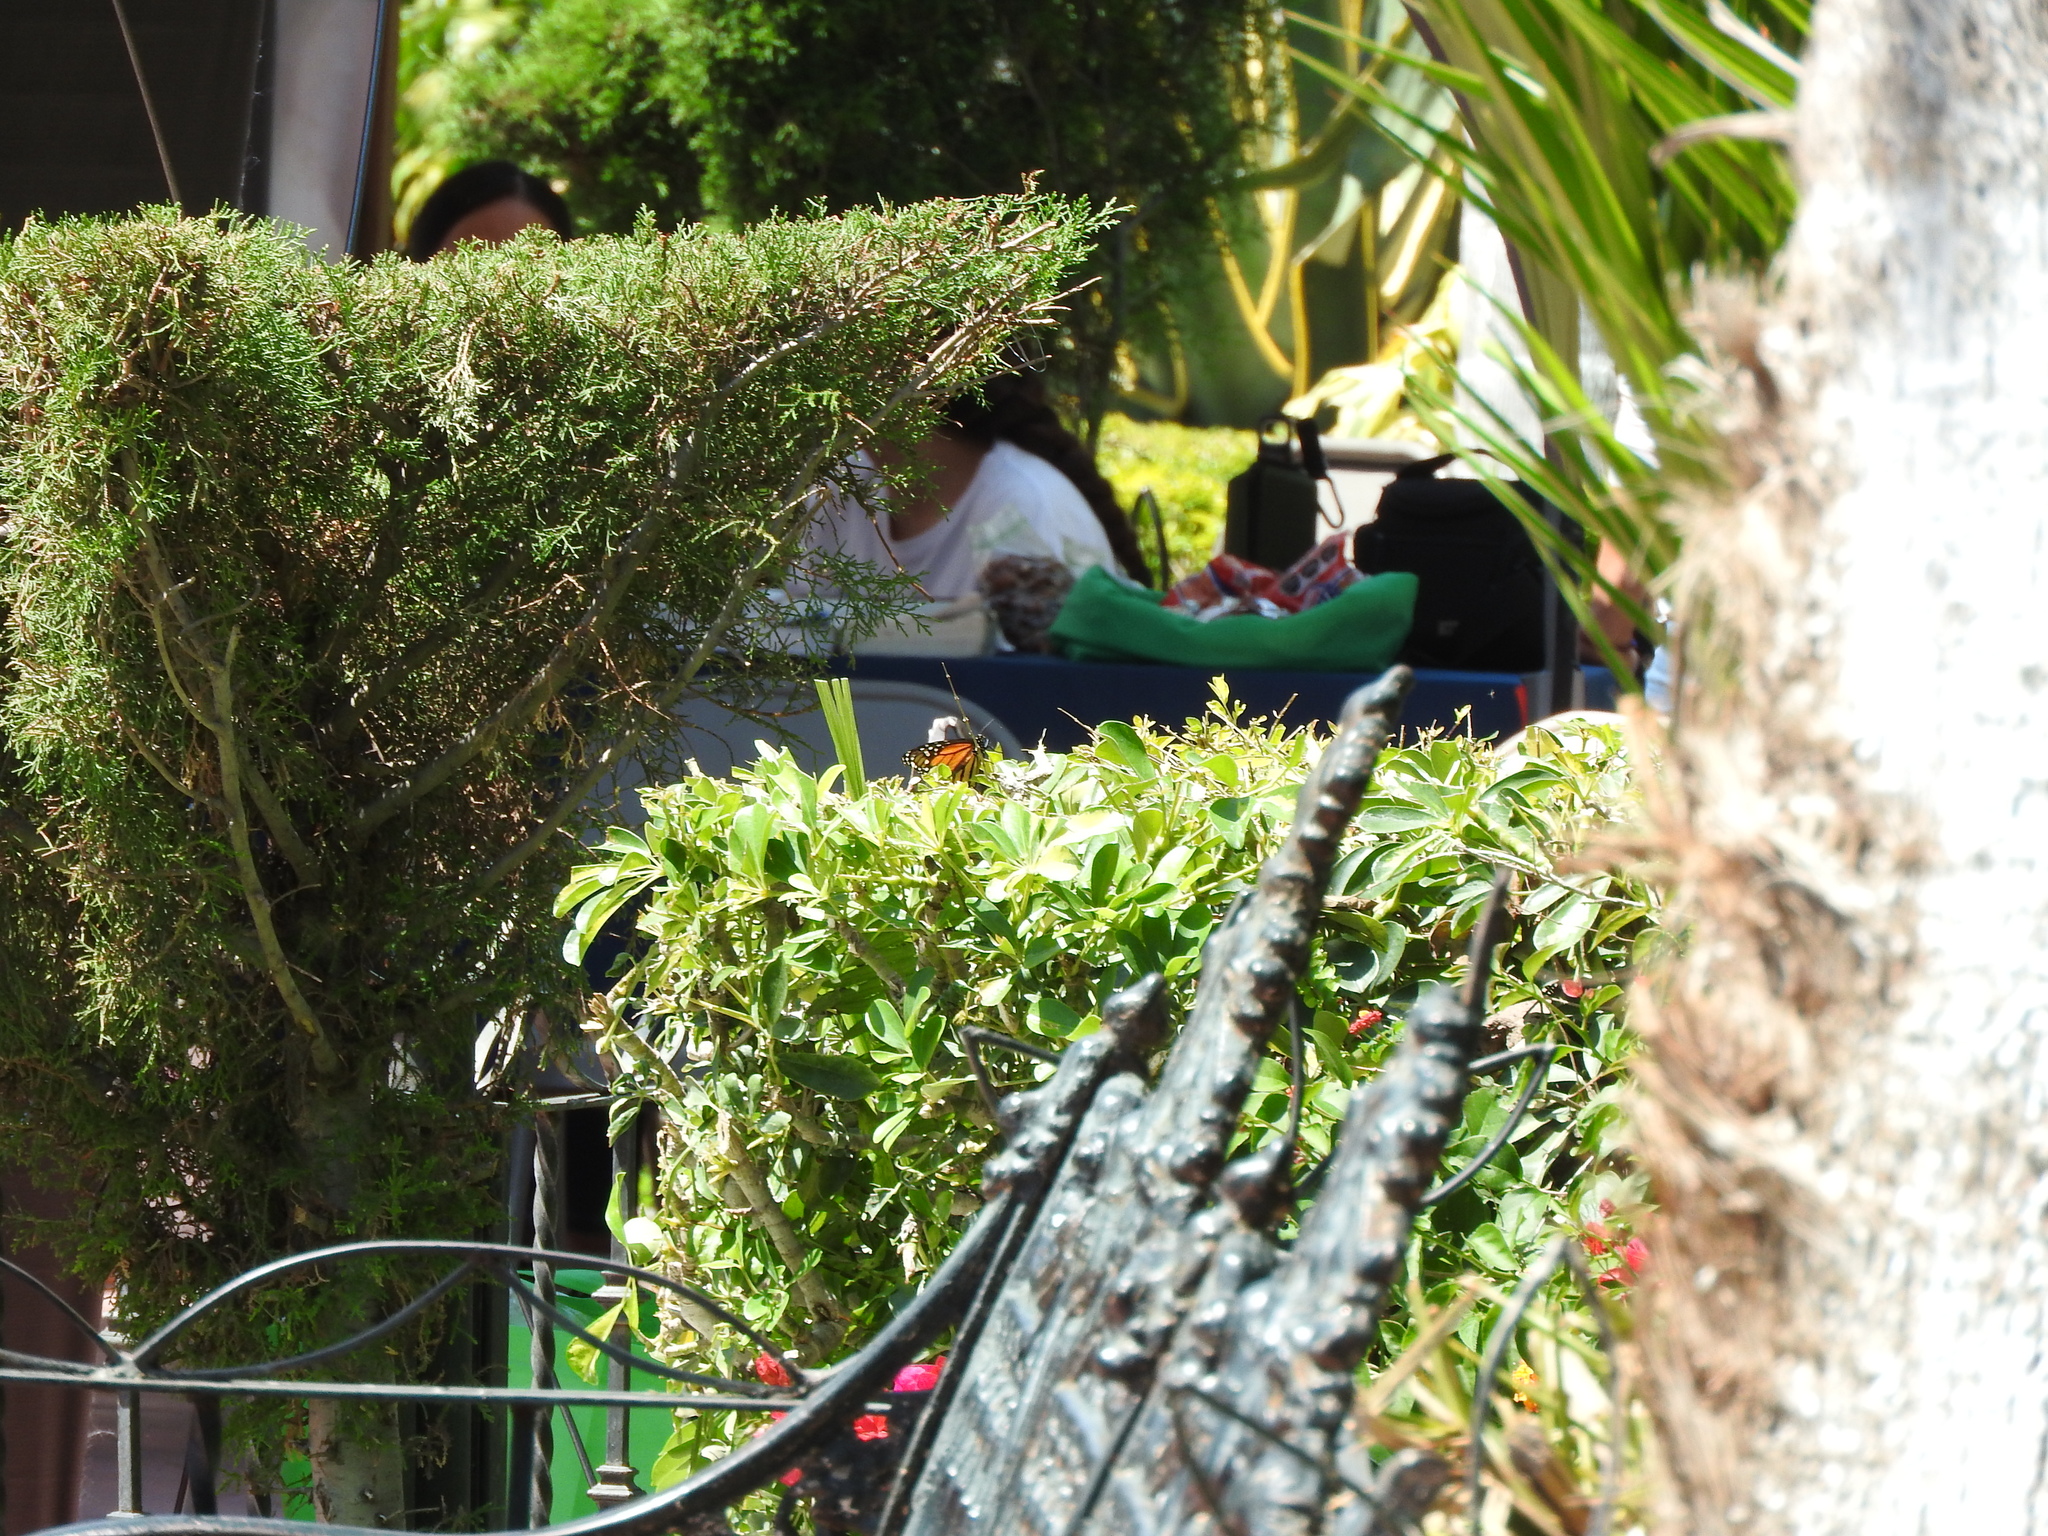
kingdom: Animalia
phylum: Arthropoda
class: Insecta
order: Lepidoptera
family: Nymphalidae
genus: Danaus
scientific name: Danaus plexippus
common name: Monarch
